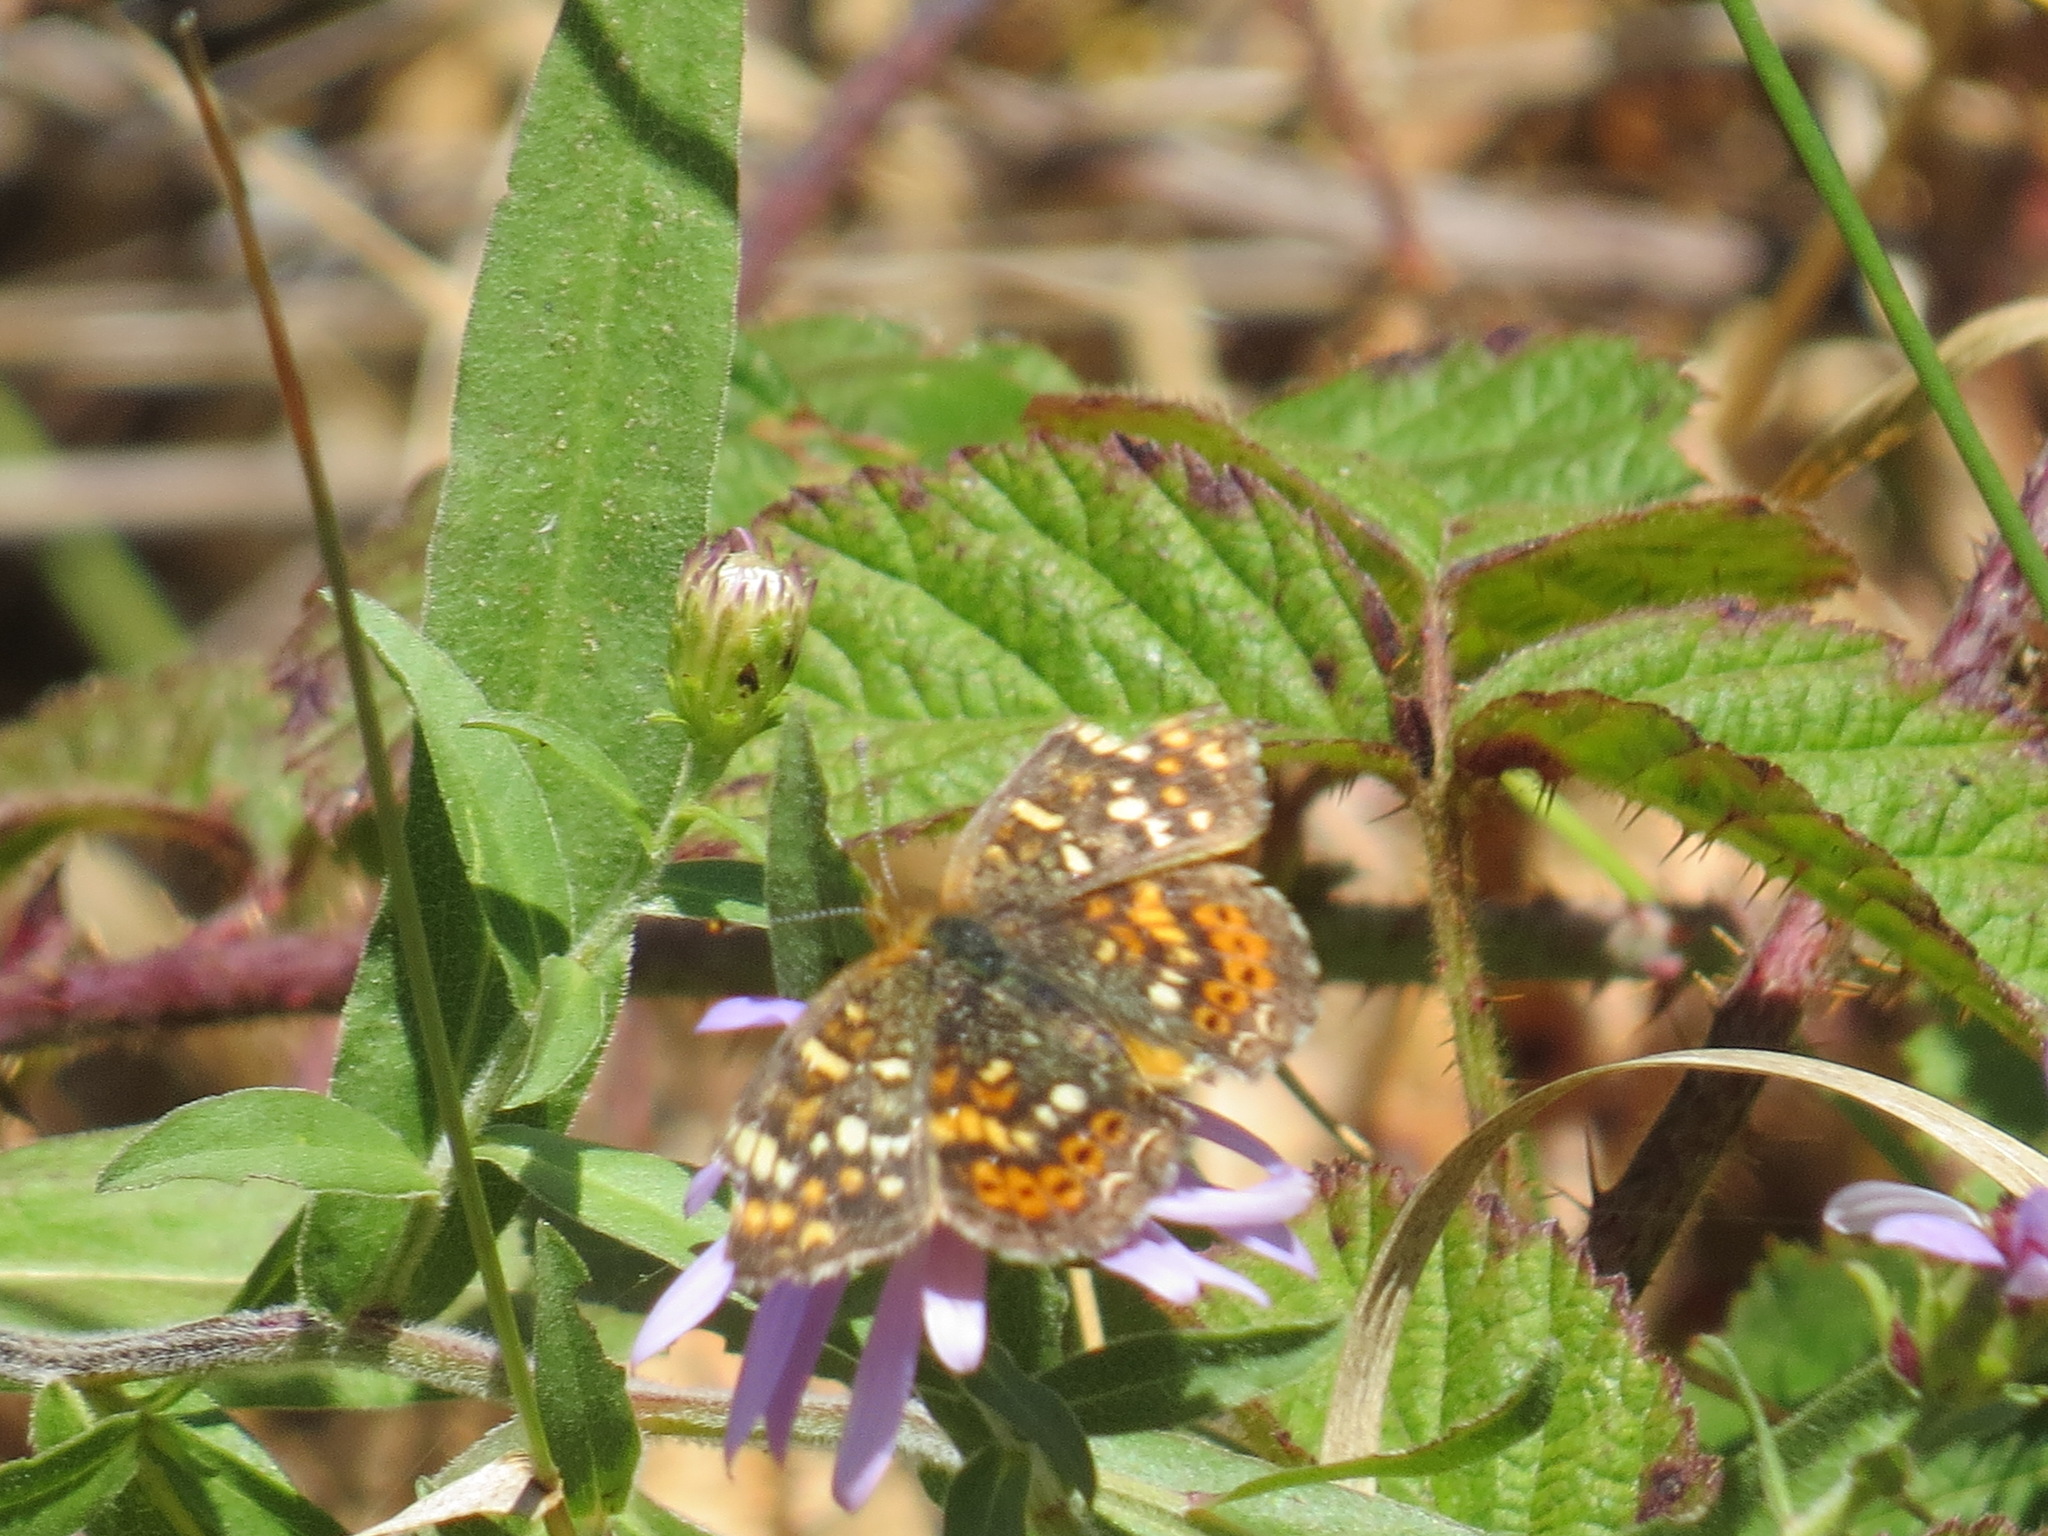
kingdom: Animalia
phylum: Arthropoda
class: Insecta
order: Lepidoptera
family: Nymphalidae
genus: Phyciodes
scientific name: Phyciodes tharos
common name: Pearl crescent
